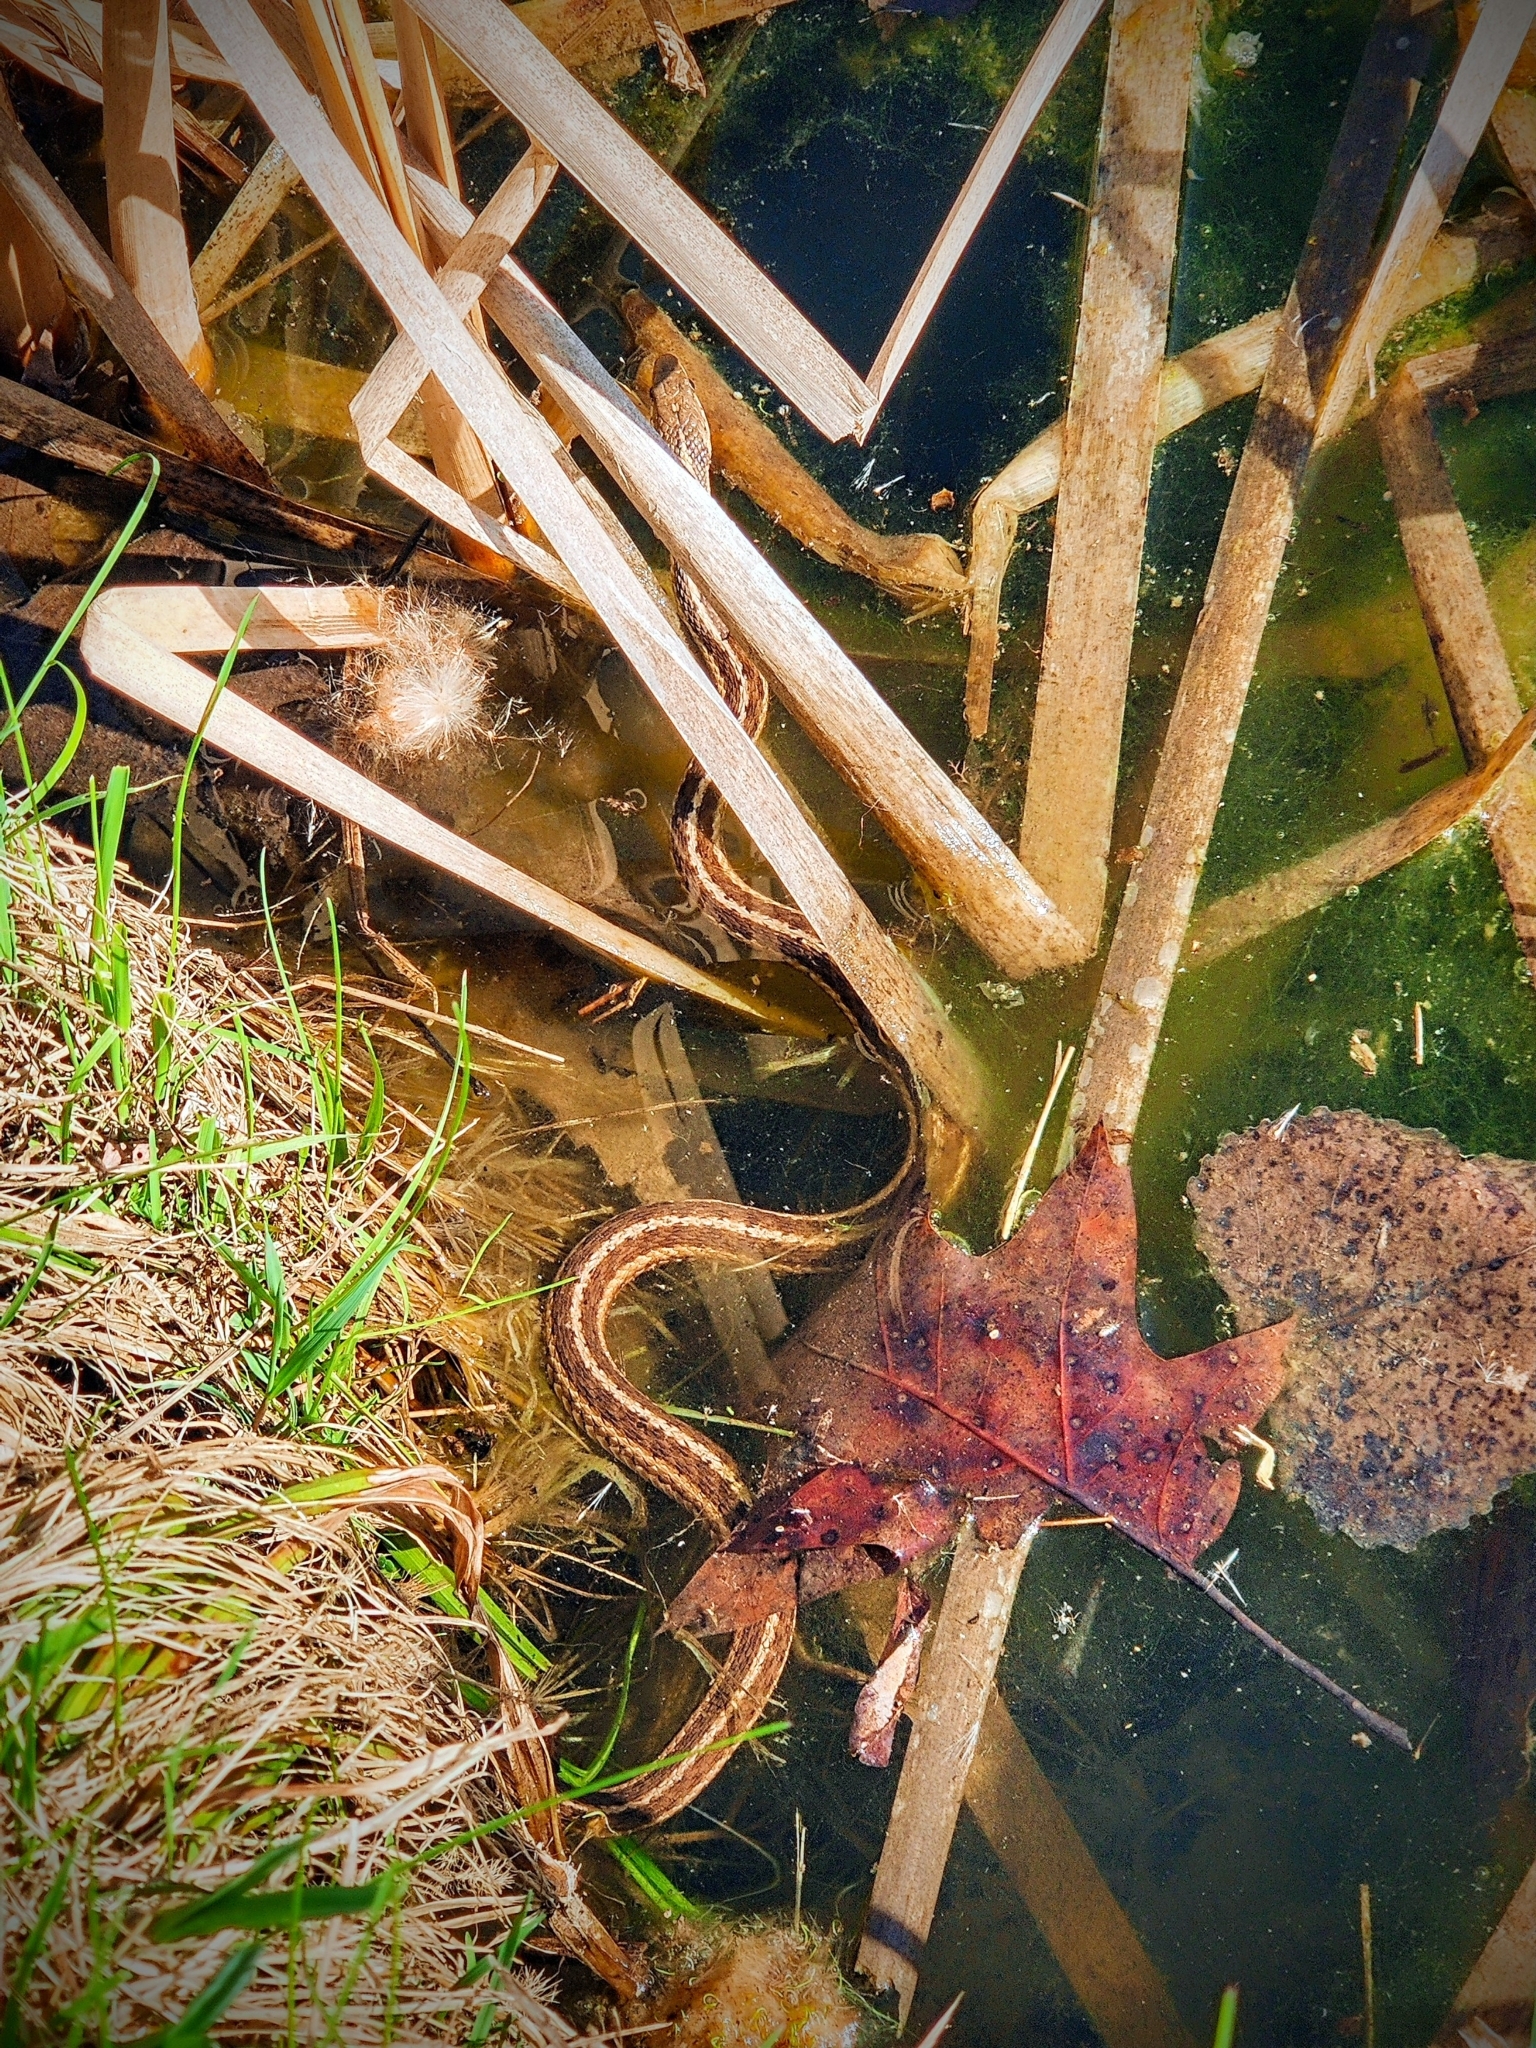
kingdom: Animalia
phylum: Chordata
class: Squamata
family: Colubridae
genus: Thamnophis
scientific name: Thamnophis sirtalis
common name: Common garter snake
